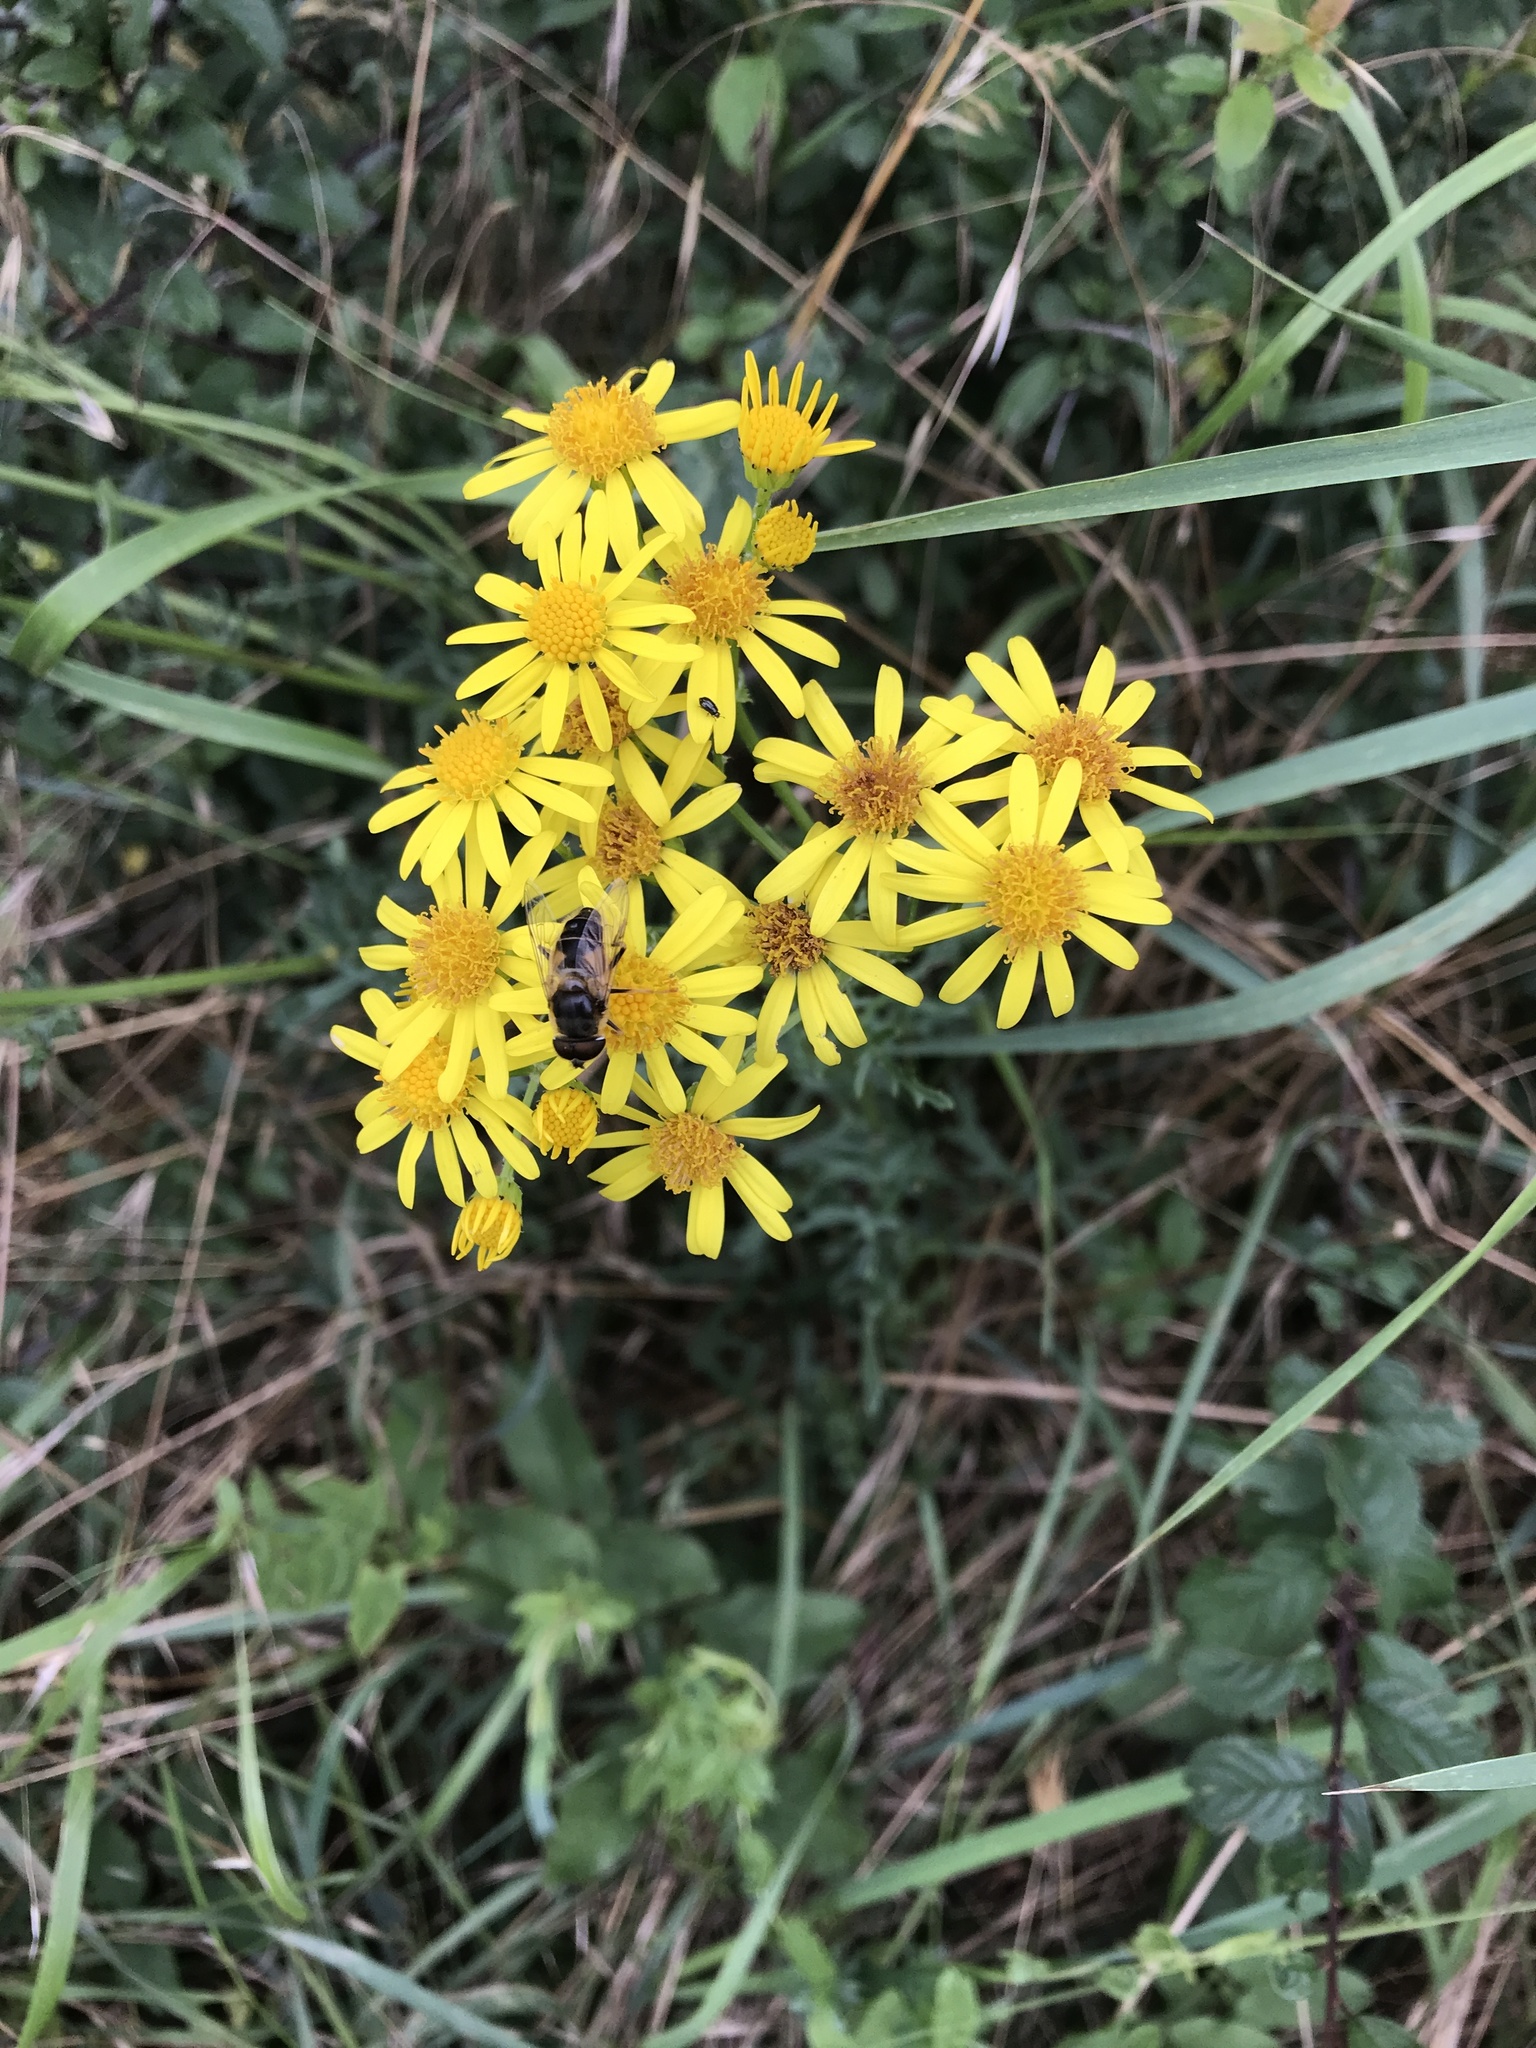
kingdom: Plantae
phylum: Tracheophyta
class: Magnoliopsida
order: Asterales
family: Asteraceae
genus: Jacobaea
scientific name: Jacobaea vulgaris
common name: Stinking willie
